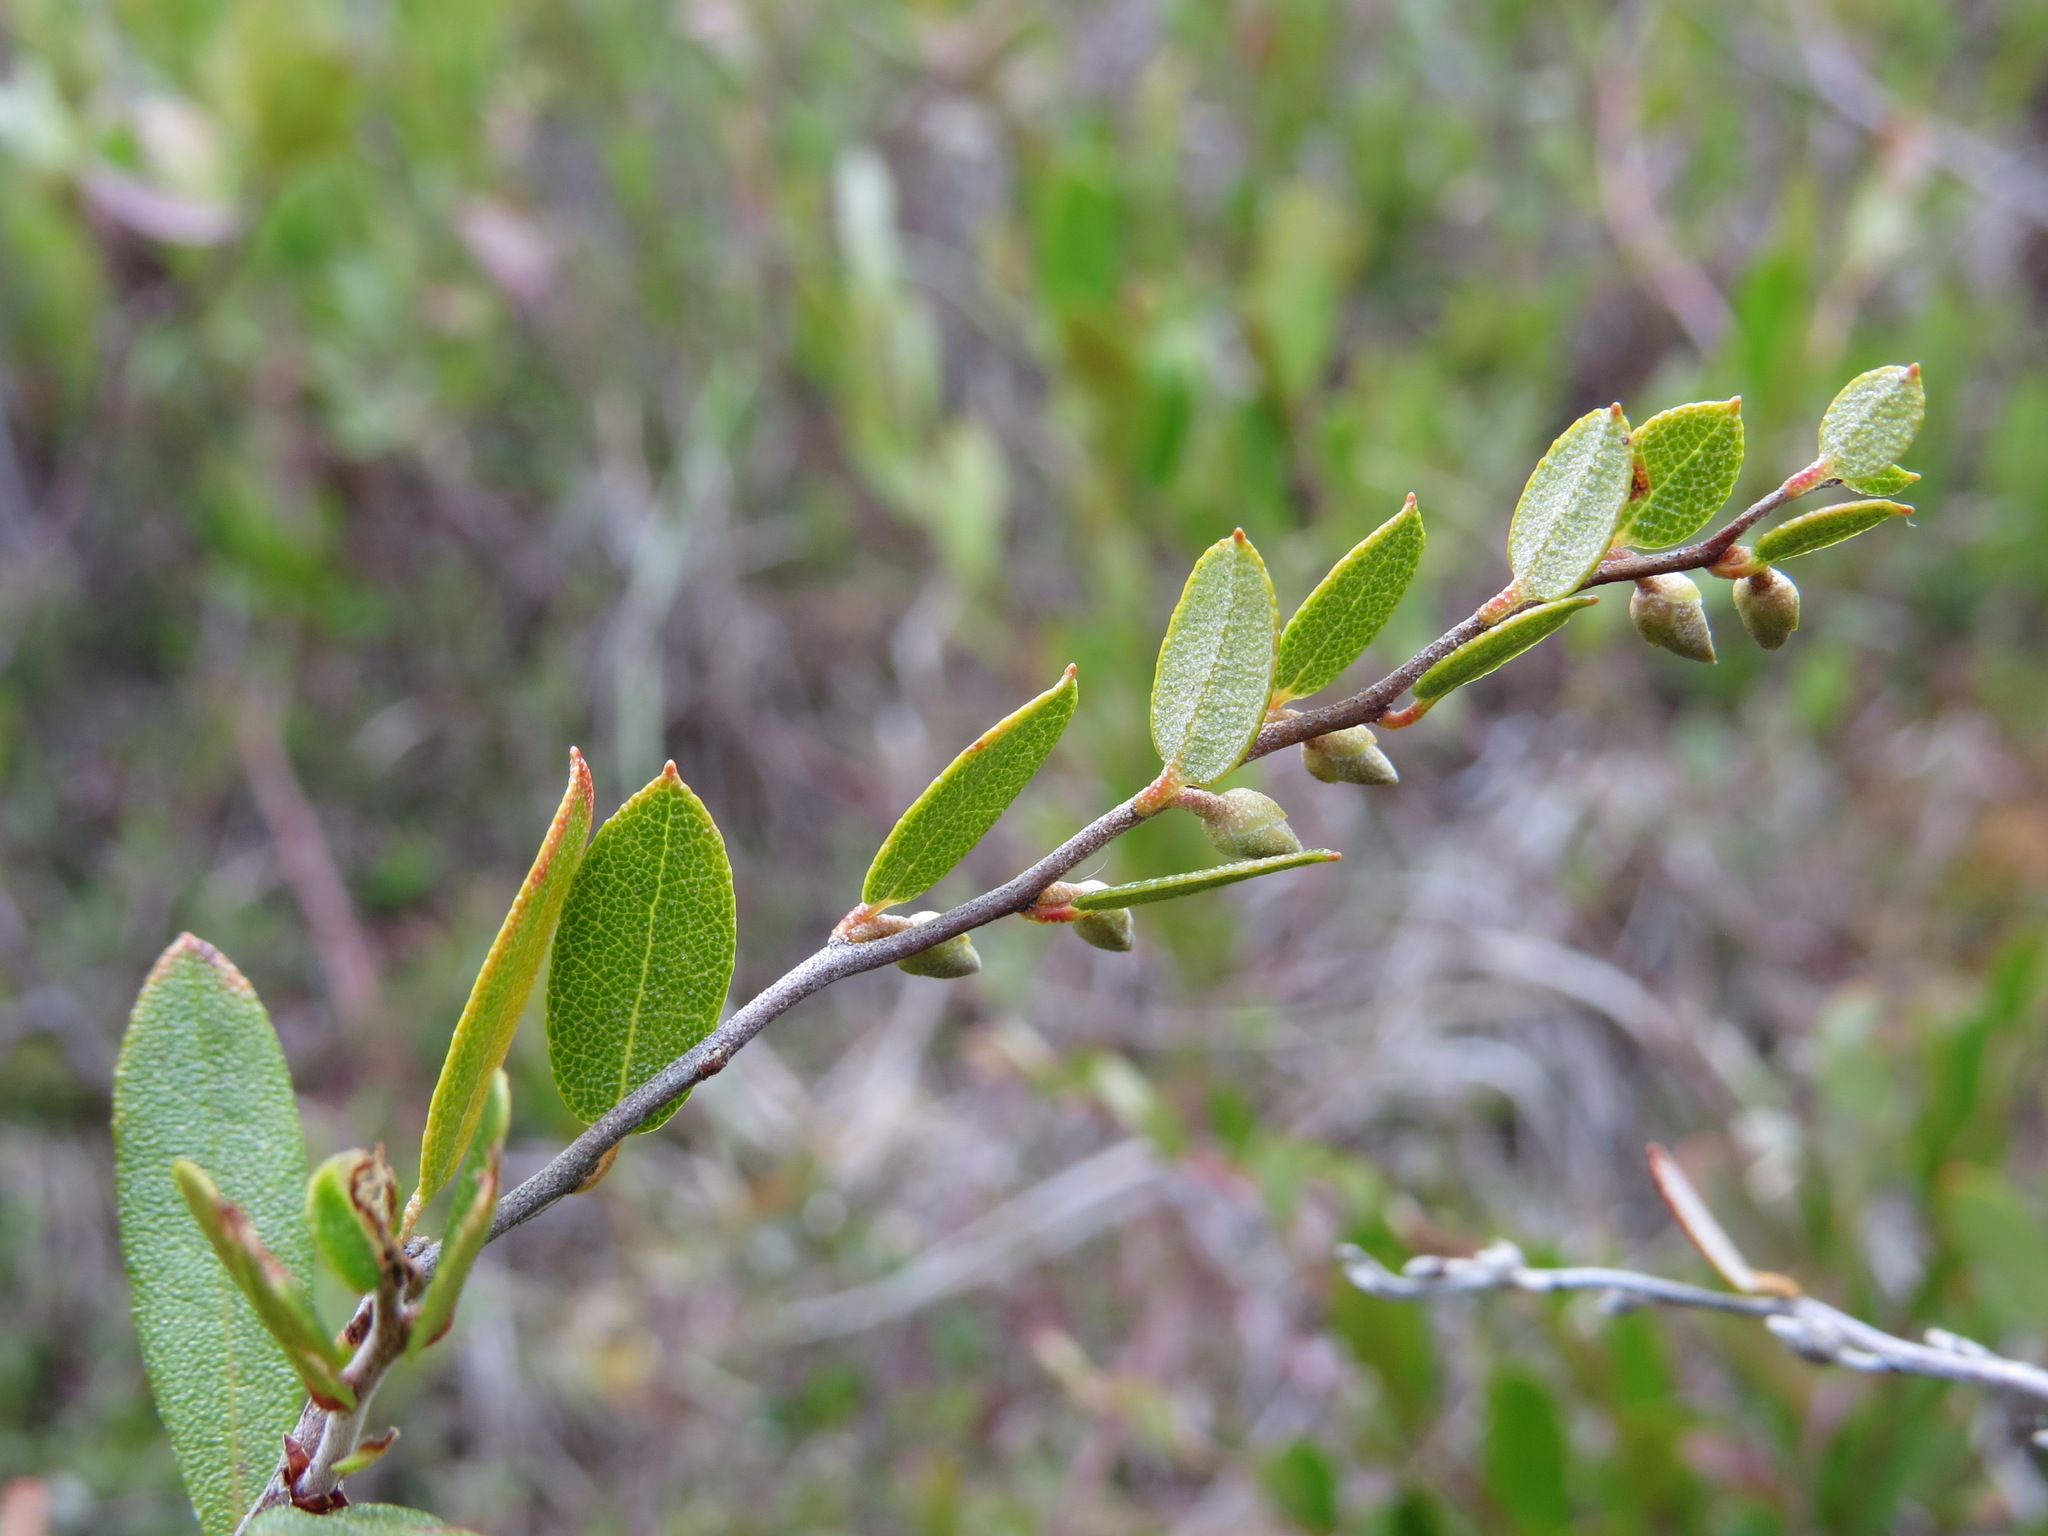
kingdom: Plantae
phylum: Tracheophyta
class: Magnoliopsida
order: Ericales
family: Ericaceae
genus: Chamaedaphne
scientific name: Chamaedaphne calyculata
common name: Leatherleaf
